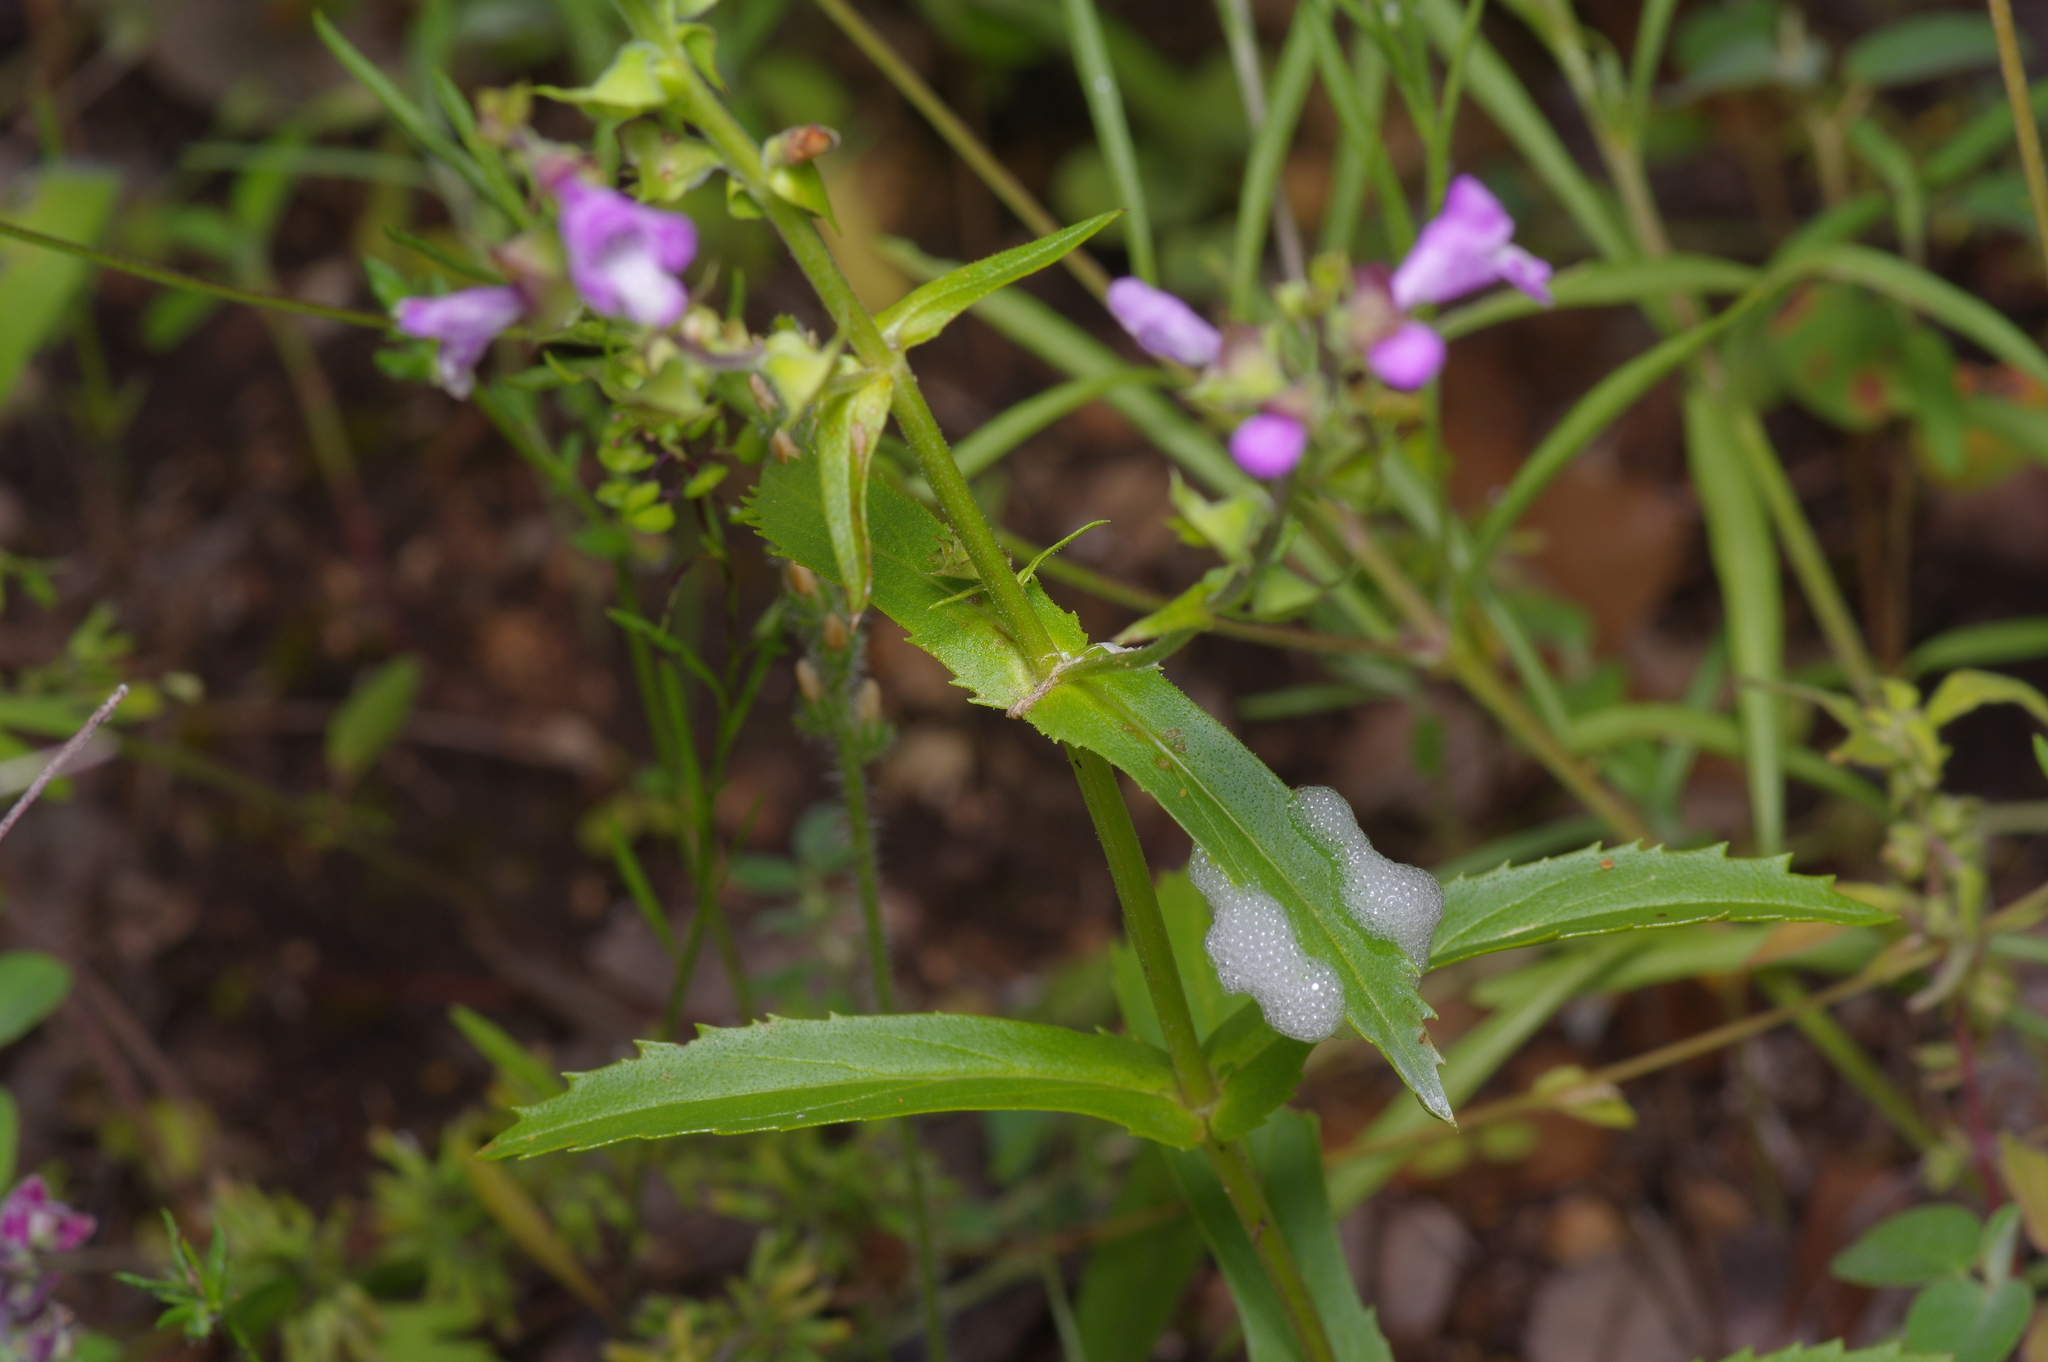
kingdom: Plantae
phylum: Tracheophyta
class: Magnoliopsida
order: Lamiales
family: Lamiaceae
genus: Warnockia
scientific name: Warnockia scutellarioides
